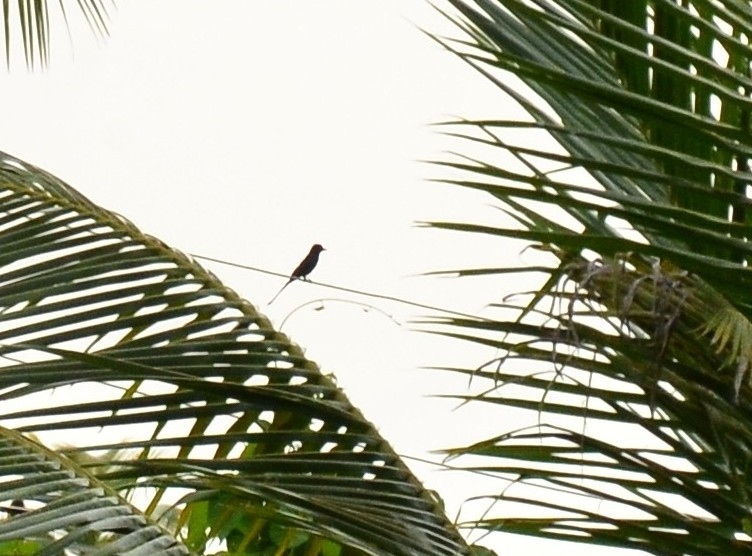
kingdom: Animalia
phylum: Chordata
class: Aves
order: Passeriformes
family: Dicruridae
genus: Dicrurus
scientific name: Dicrurus macrocercus
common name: Black drongo
